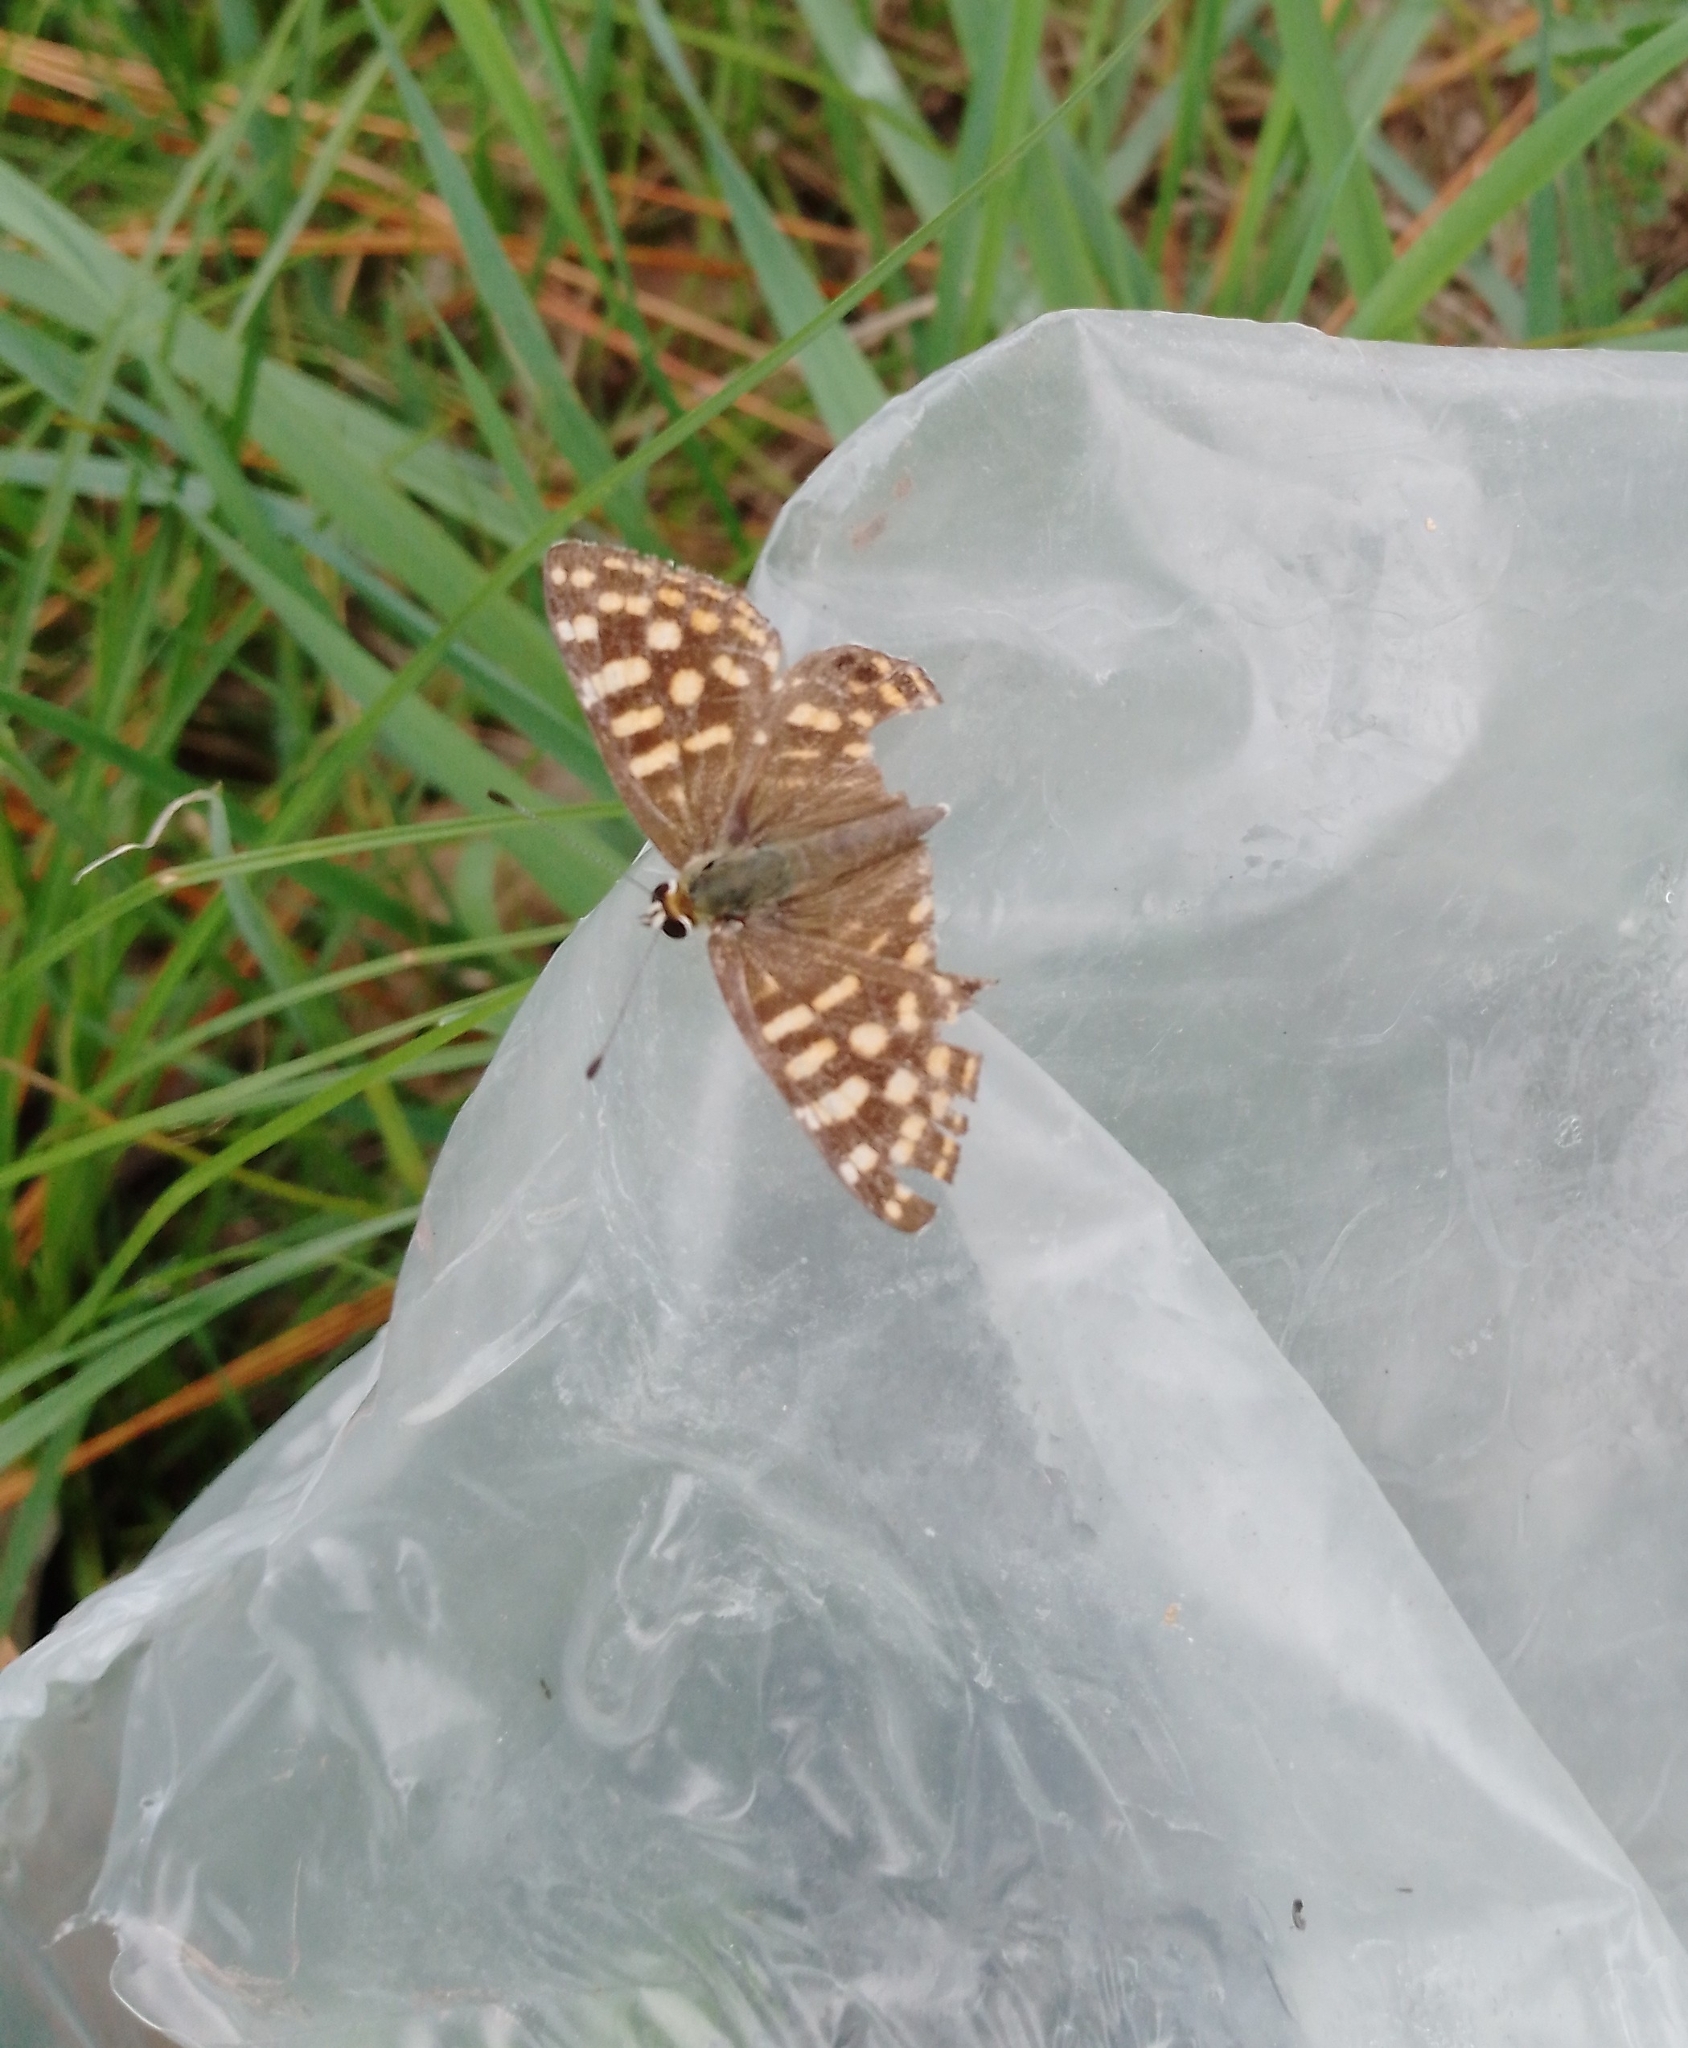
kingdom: Animalia
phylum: Arthropoda
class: Insecta
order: Lepidoptera
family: Lycaenidae
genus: Dodona
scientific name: Dodona durga
